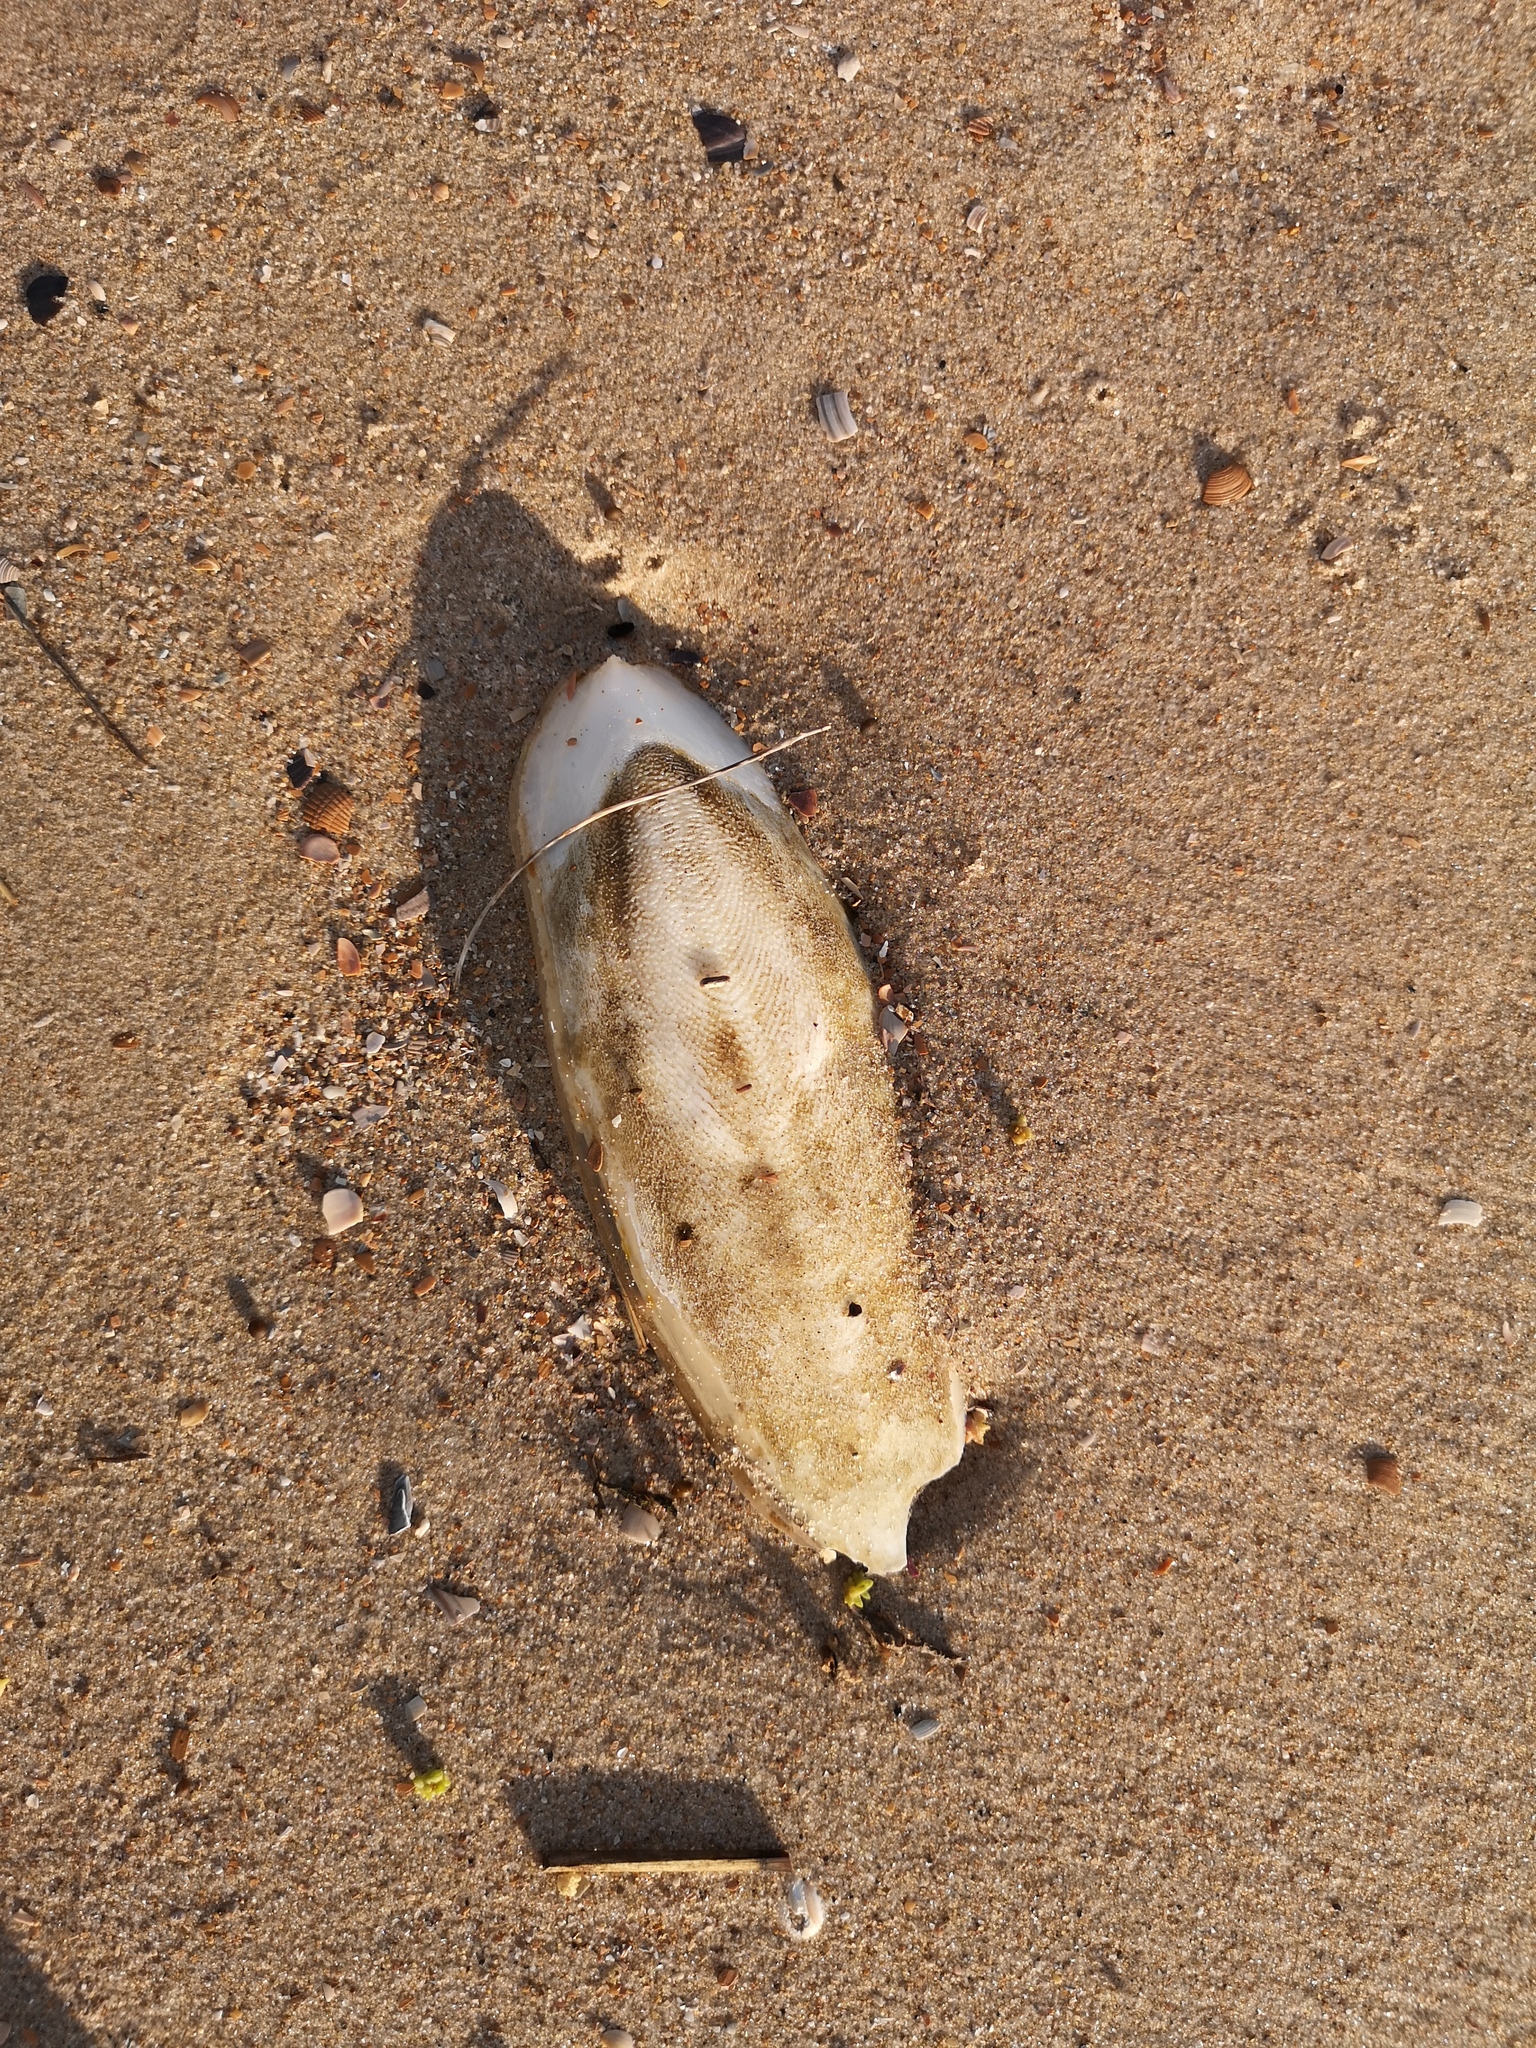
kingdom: Animalia
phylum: Mollusca
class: Cephalopoda
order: Sepiida
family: Sepiidae
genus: Sepia
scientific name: Sepia officinalis
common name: Common cuttlefish
